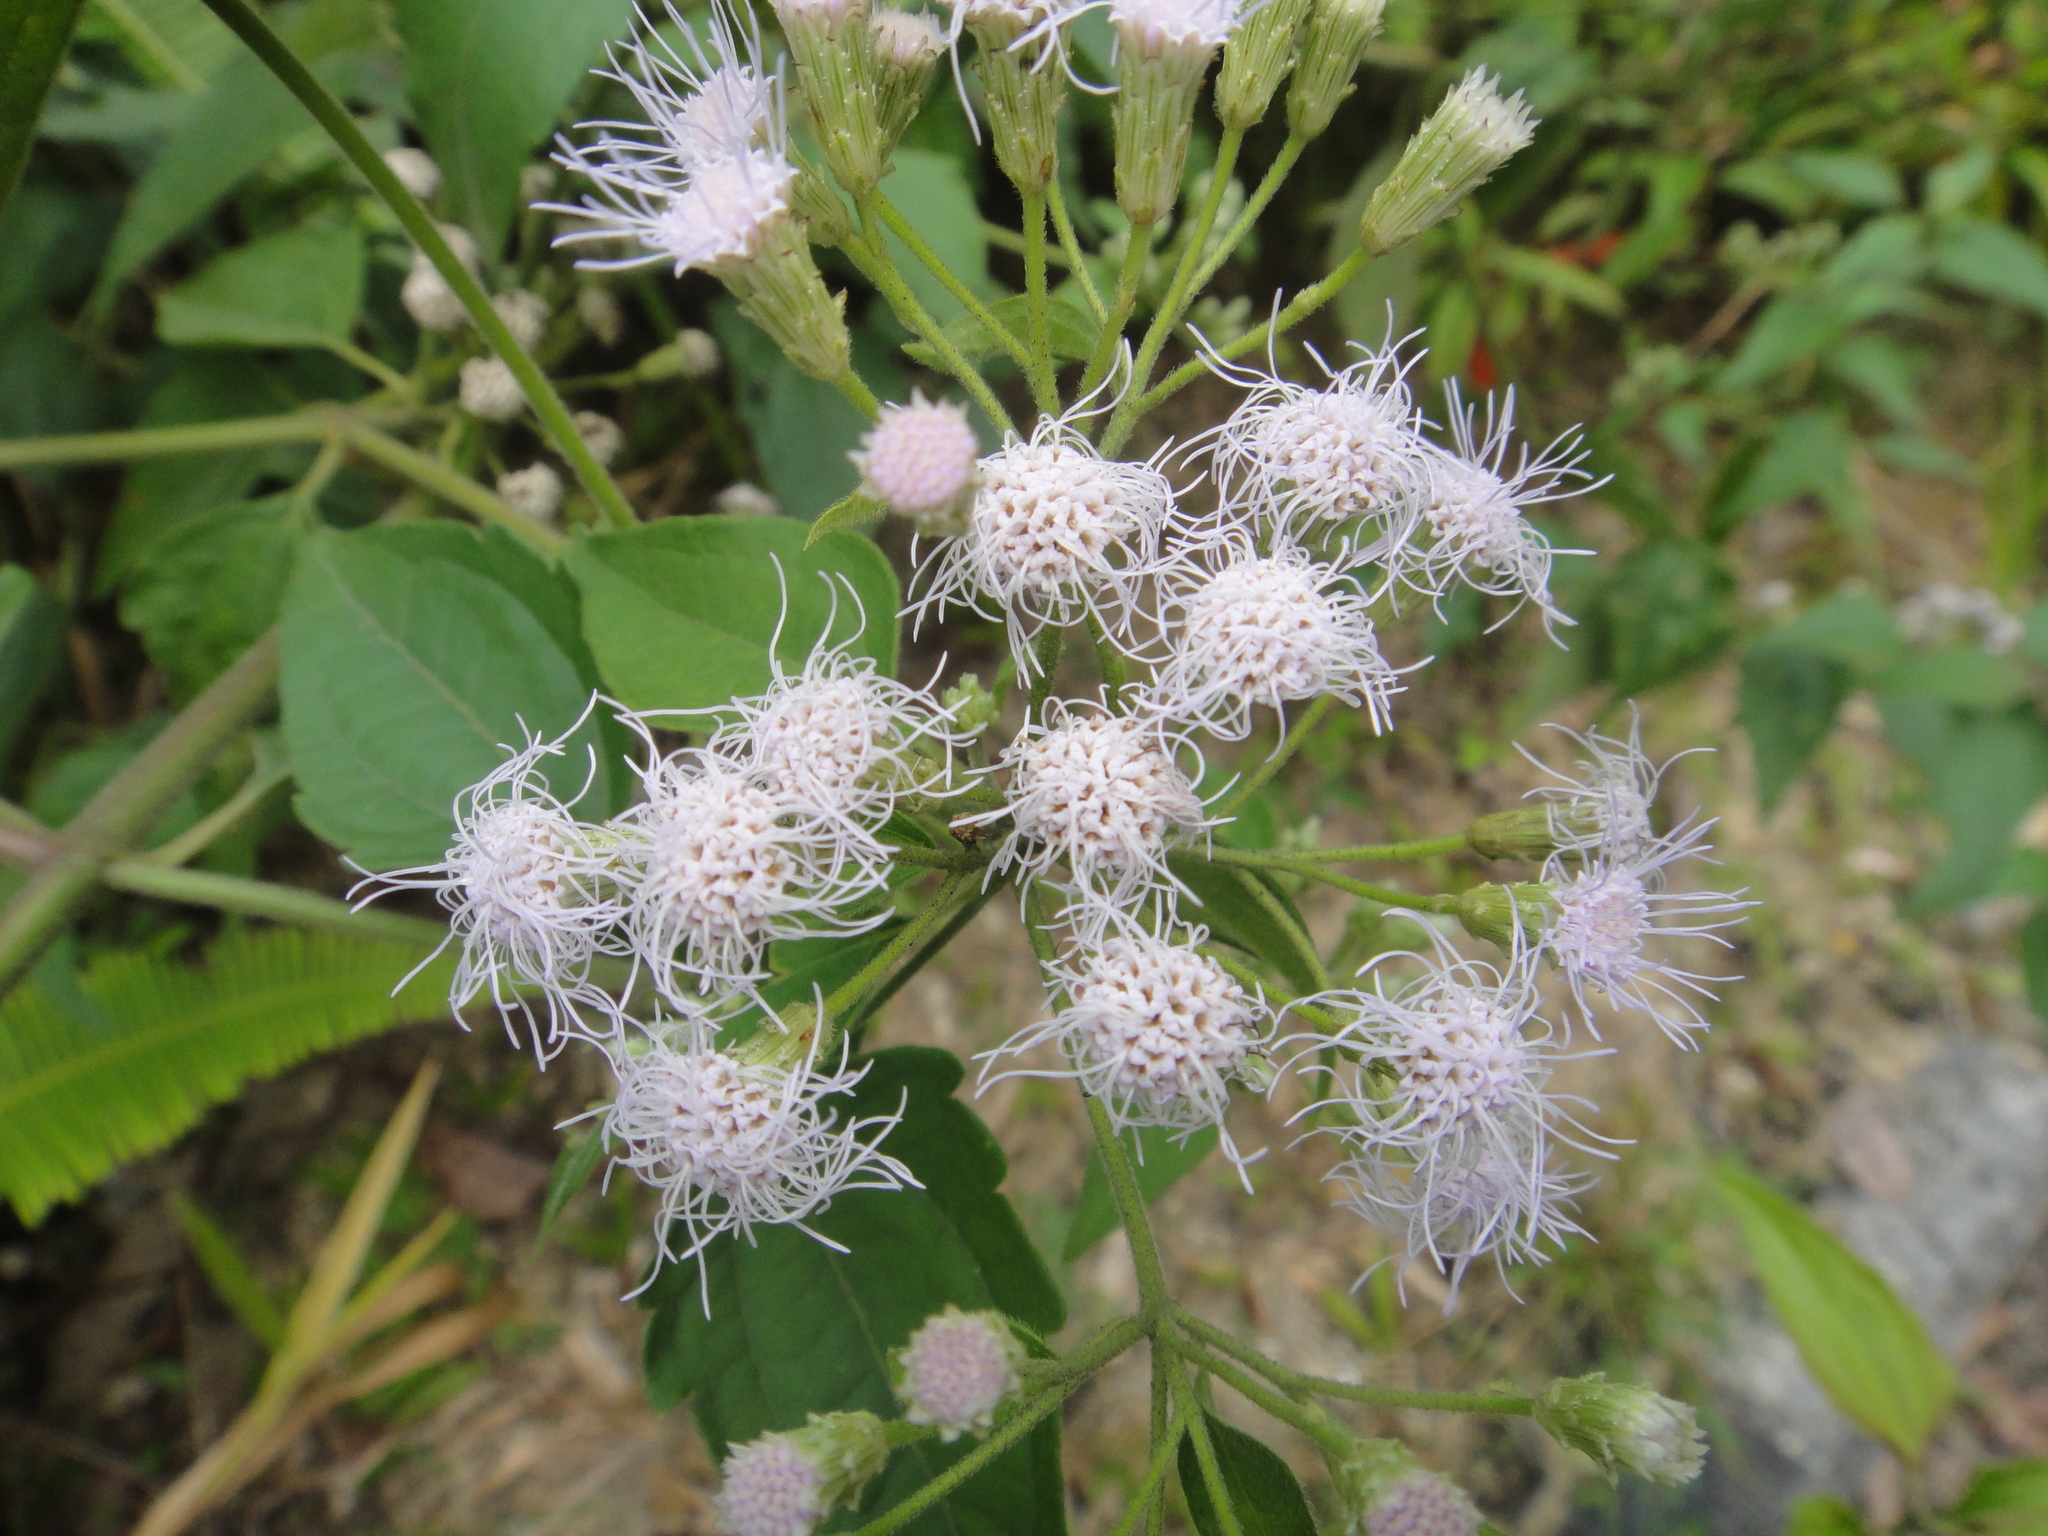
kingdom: Plantae
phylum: Tracheophyta
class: Magnoliopsida
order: Asterales
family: Asteraceae
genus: Chromolaena
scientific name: Chromolaena odorata
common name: Siamweed
